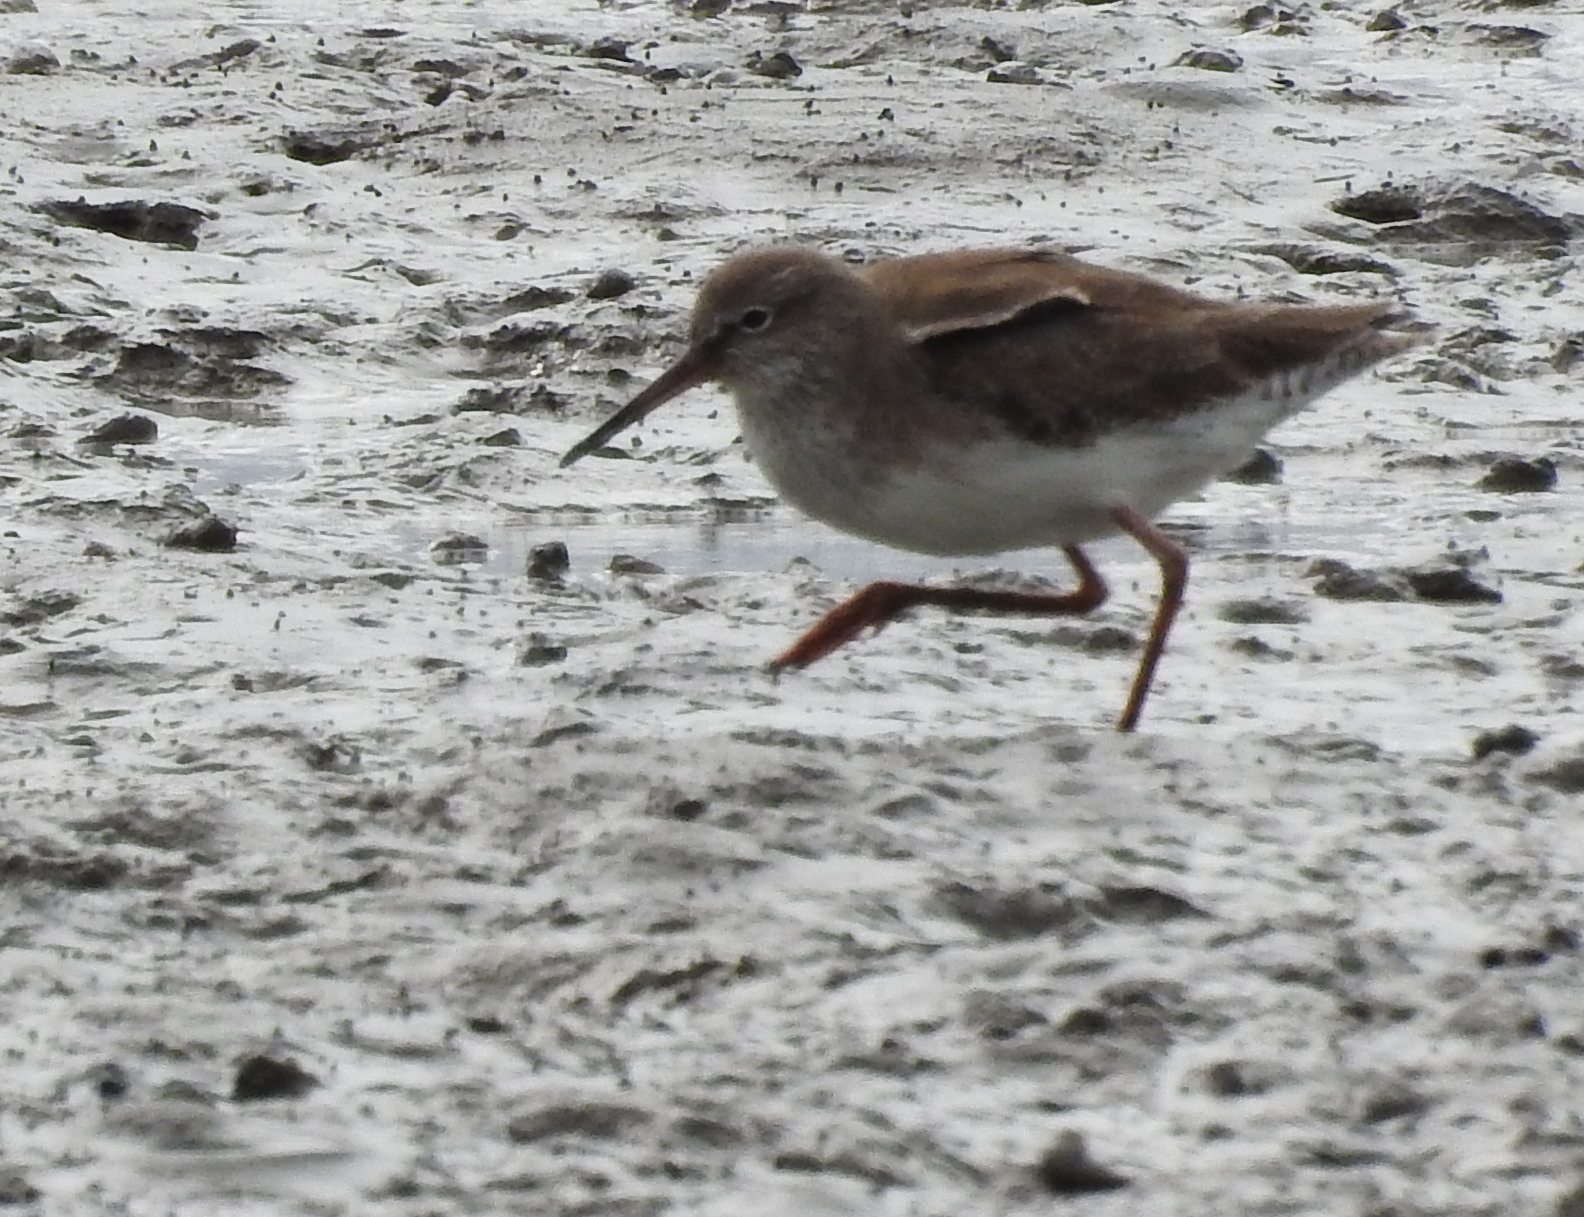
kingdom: Animalia
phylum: Chordata
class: Aves
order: Charadriiformes
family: Scolopacidae
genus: Tringa
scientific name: Tringa totanus
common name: Common redshank
